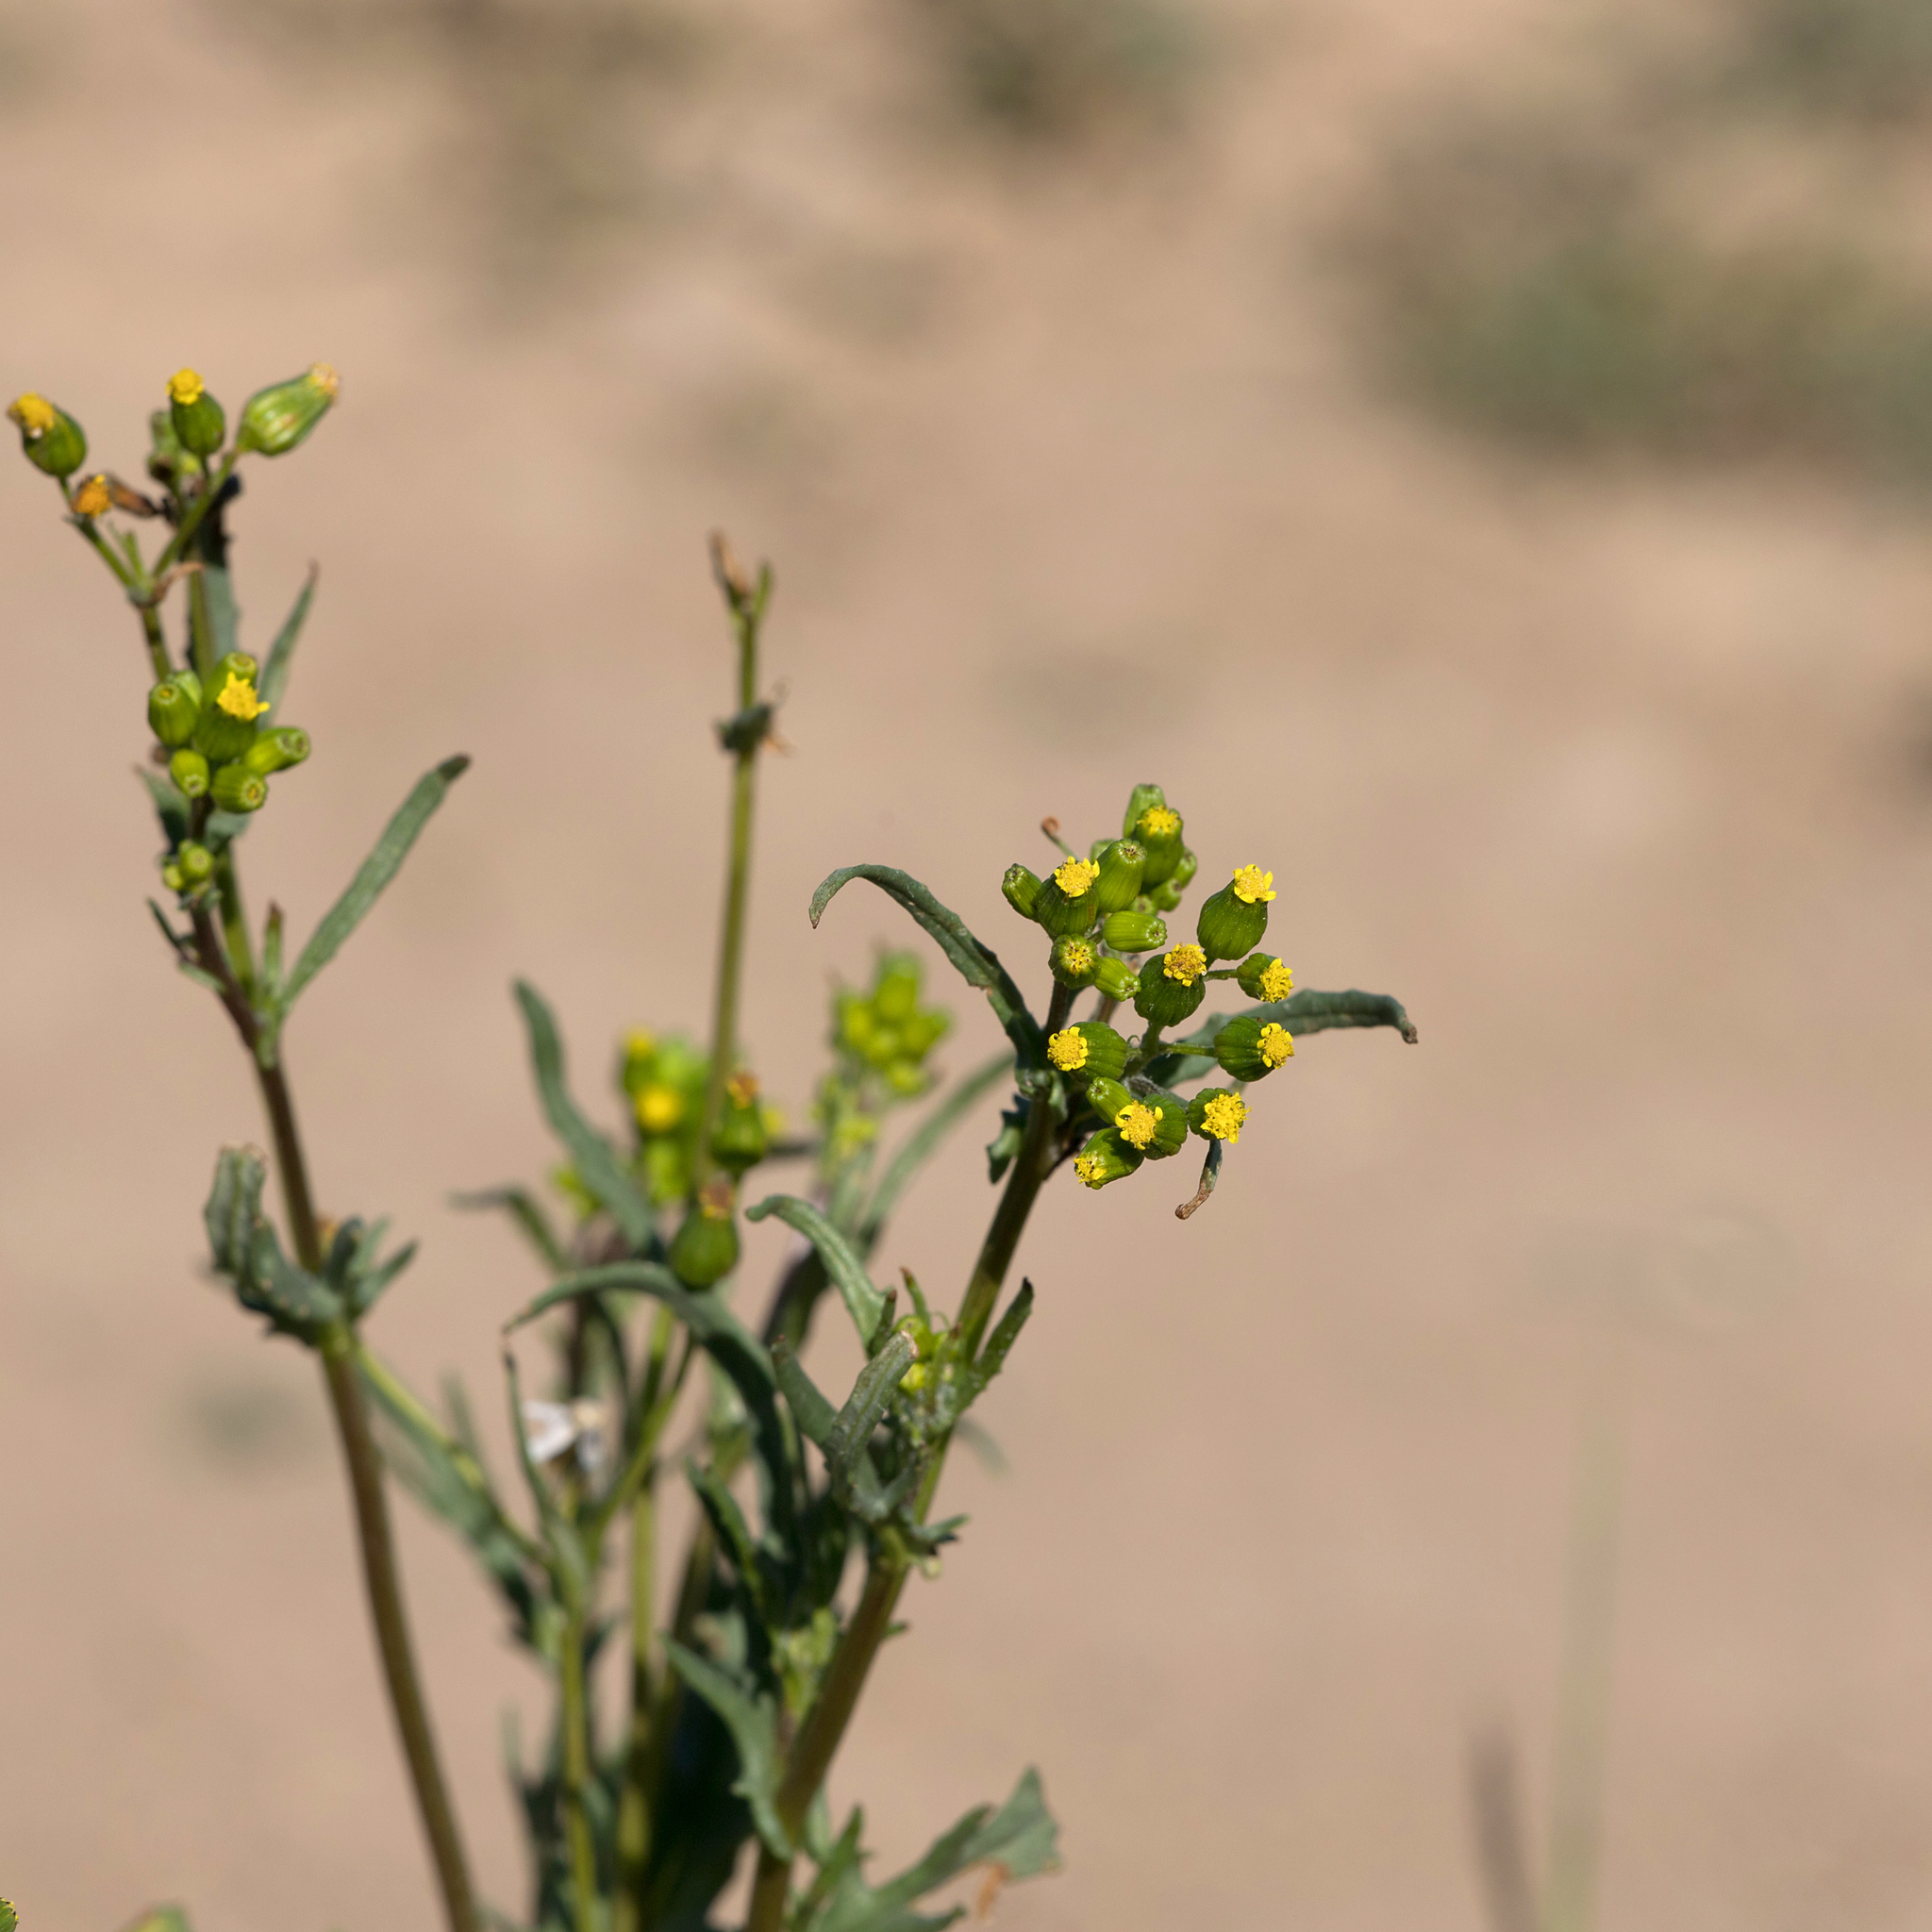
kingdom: Plantae
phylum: Tracheophyta
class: Magnoliopsida
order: Asterales
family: Asteraceae
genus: Senecio
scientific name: Senecio glossanthus
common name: Slender groundsel
